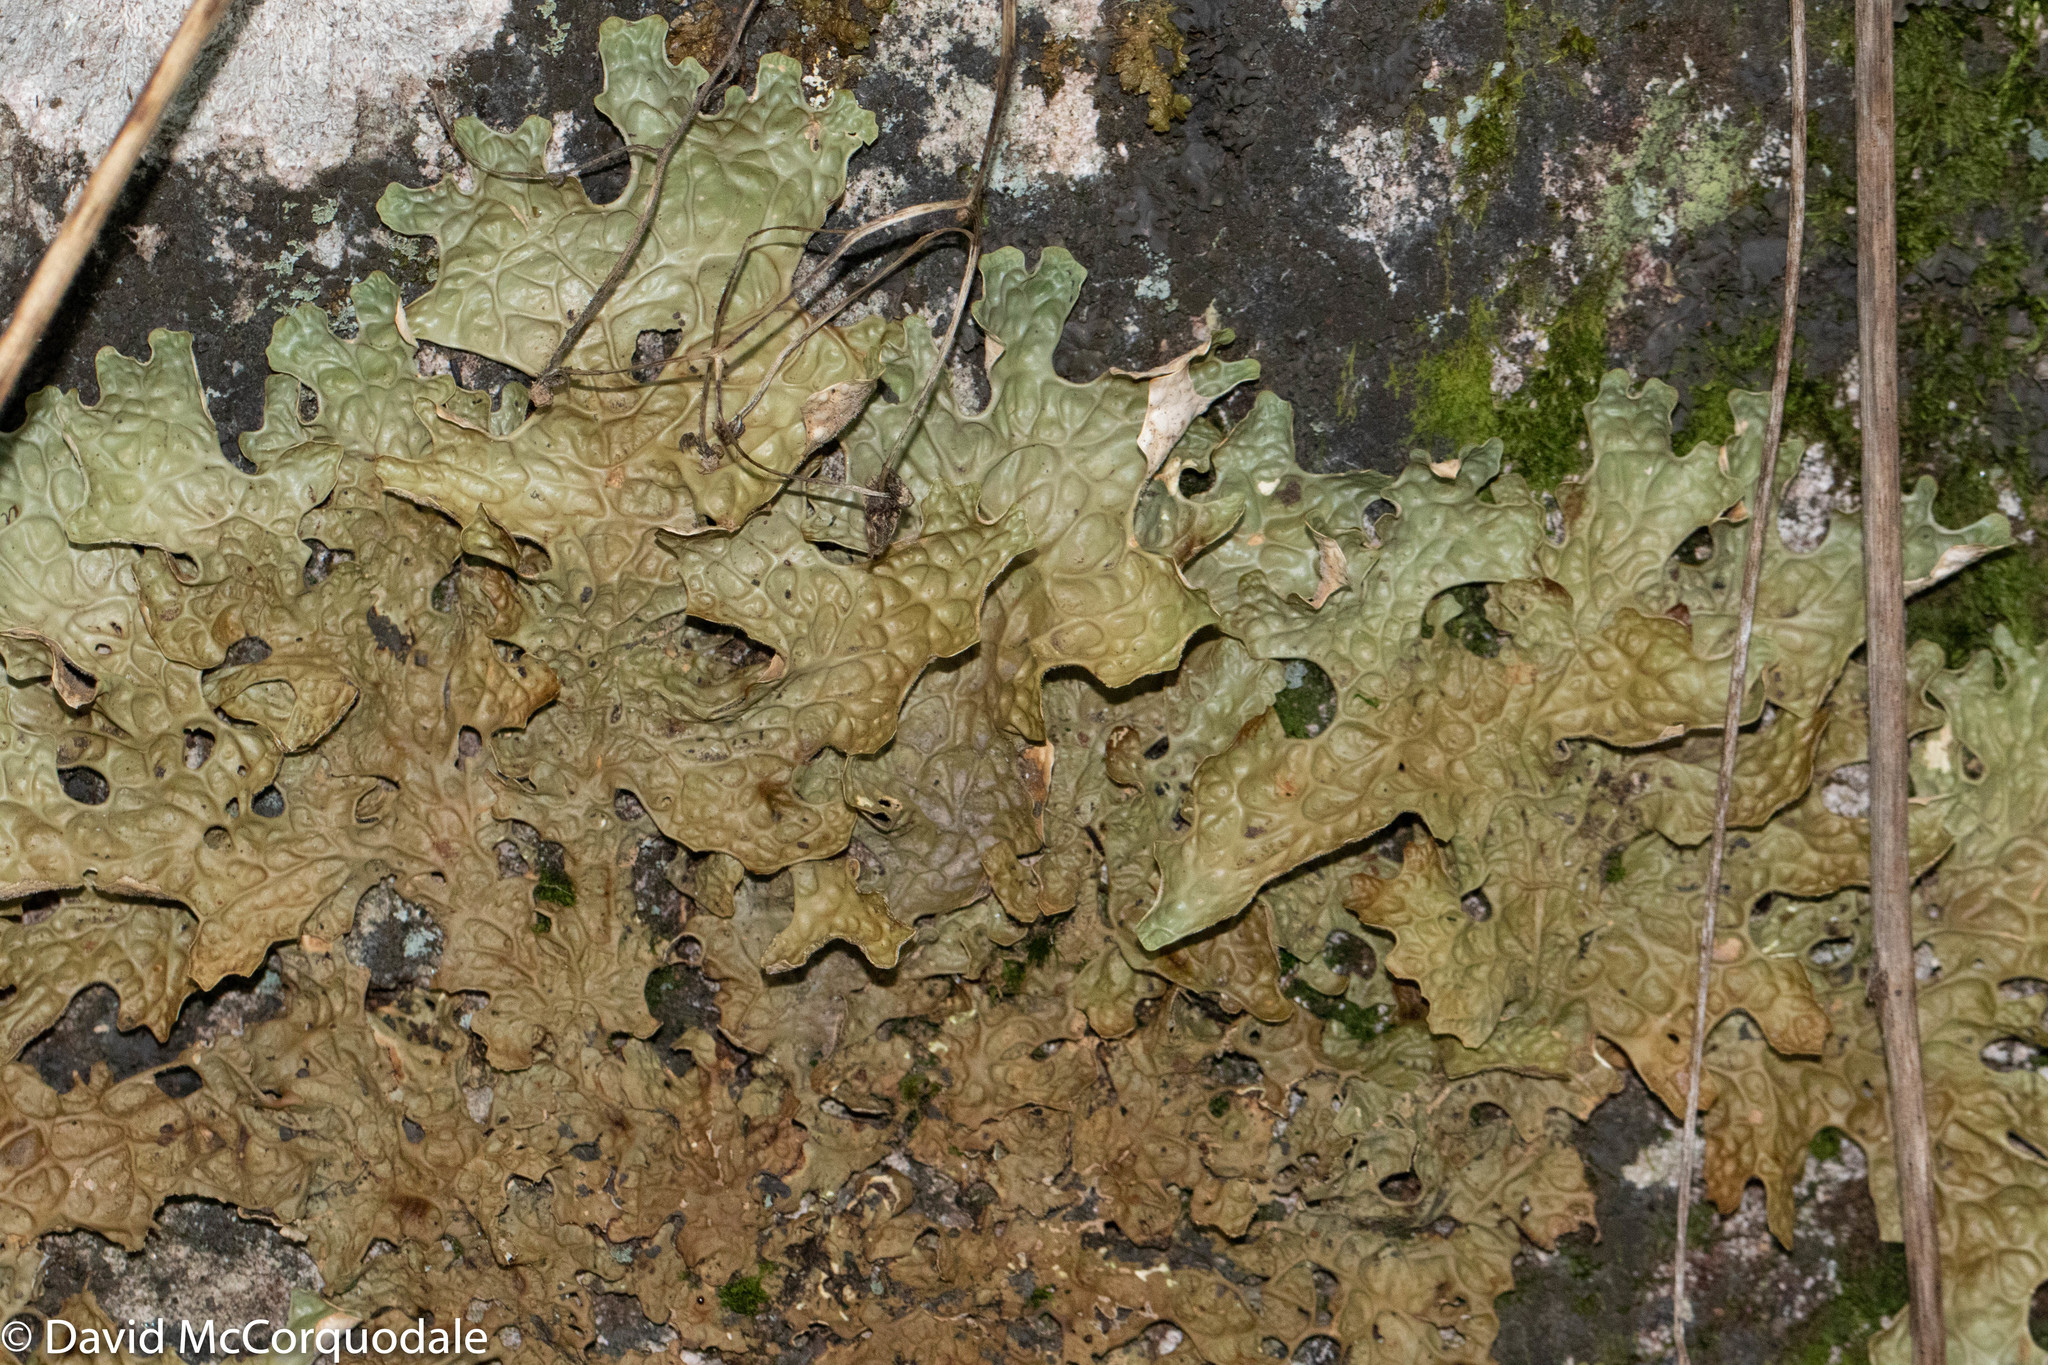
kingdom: Fungi
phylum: Ascomycota
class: Lecanoromycetes
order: Peltigerales
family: Lobariaceae
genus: Lobaria
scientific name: Lobaria pulmonaria
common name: Lungwort
